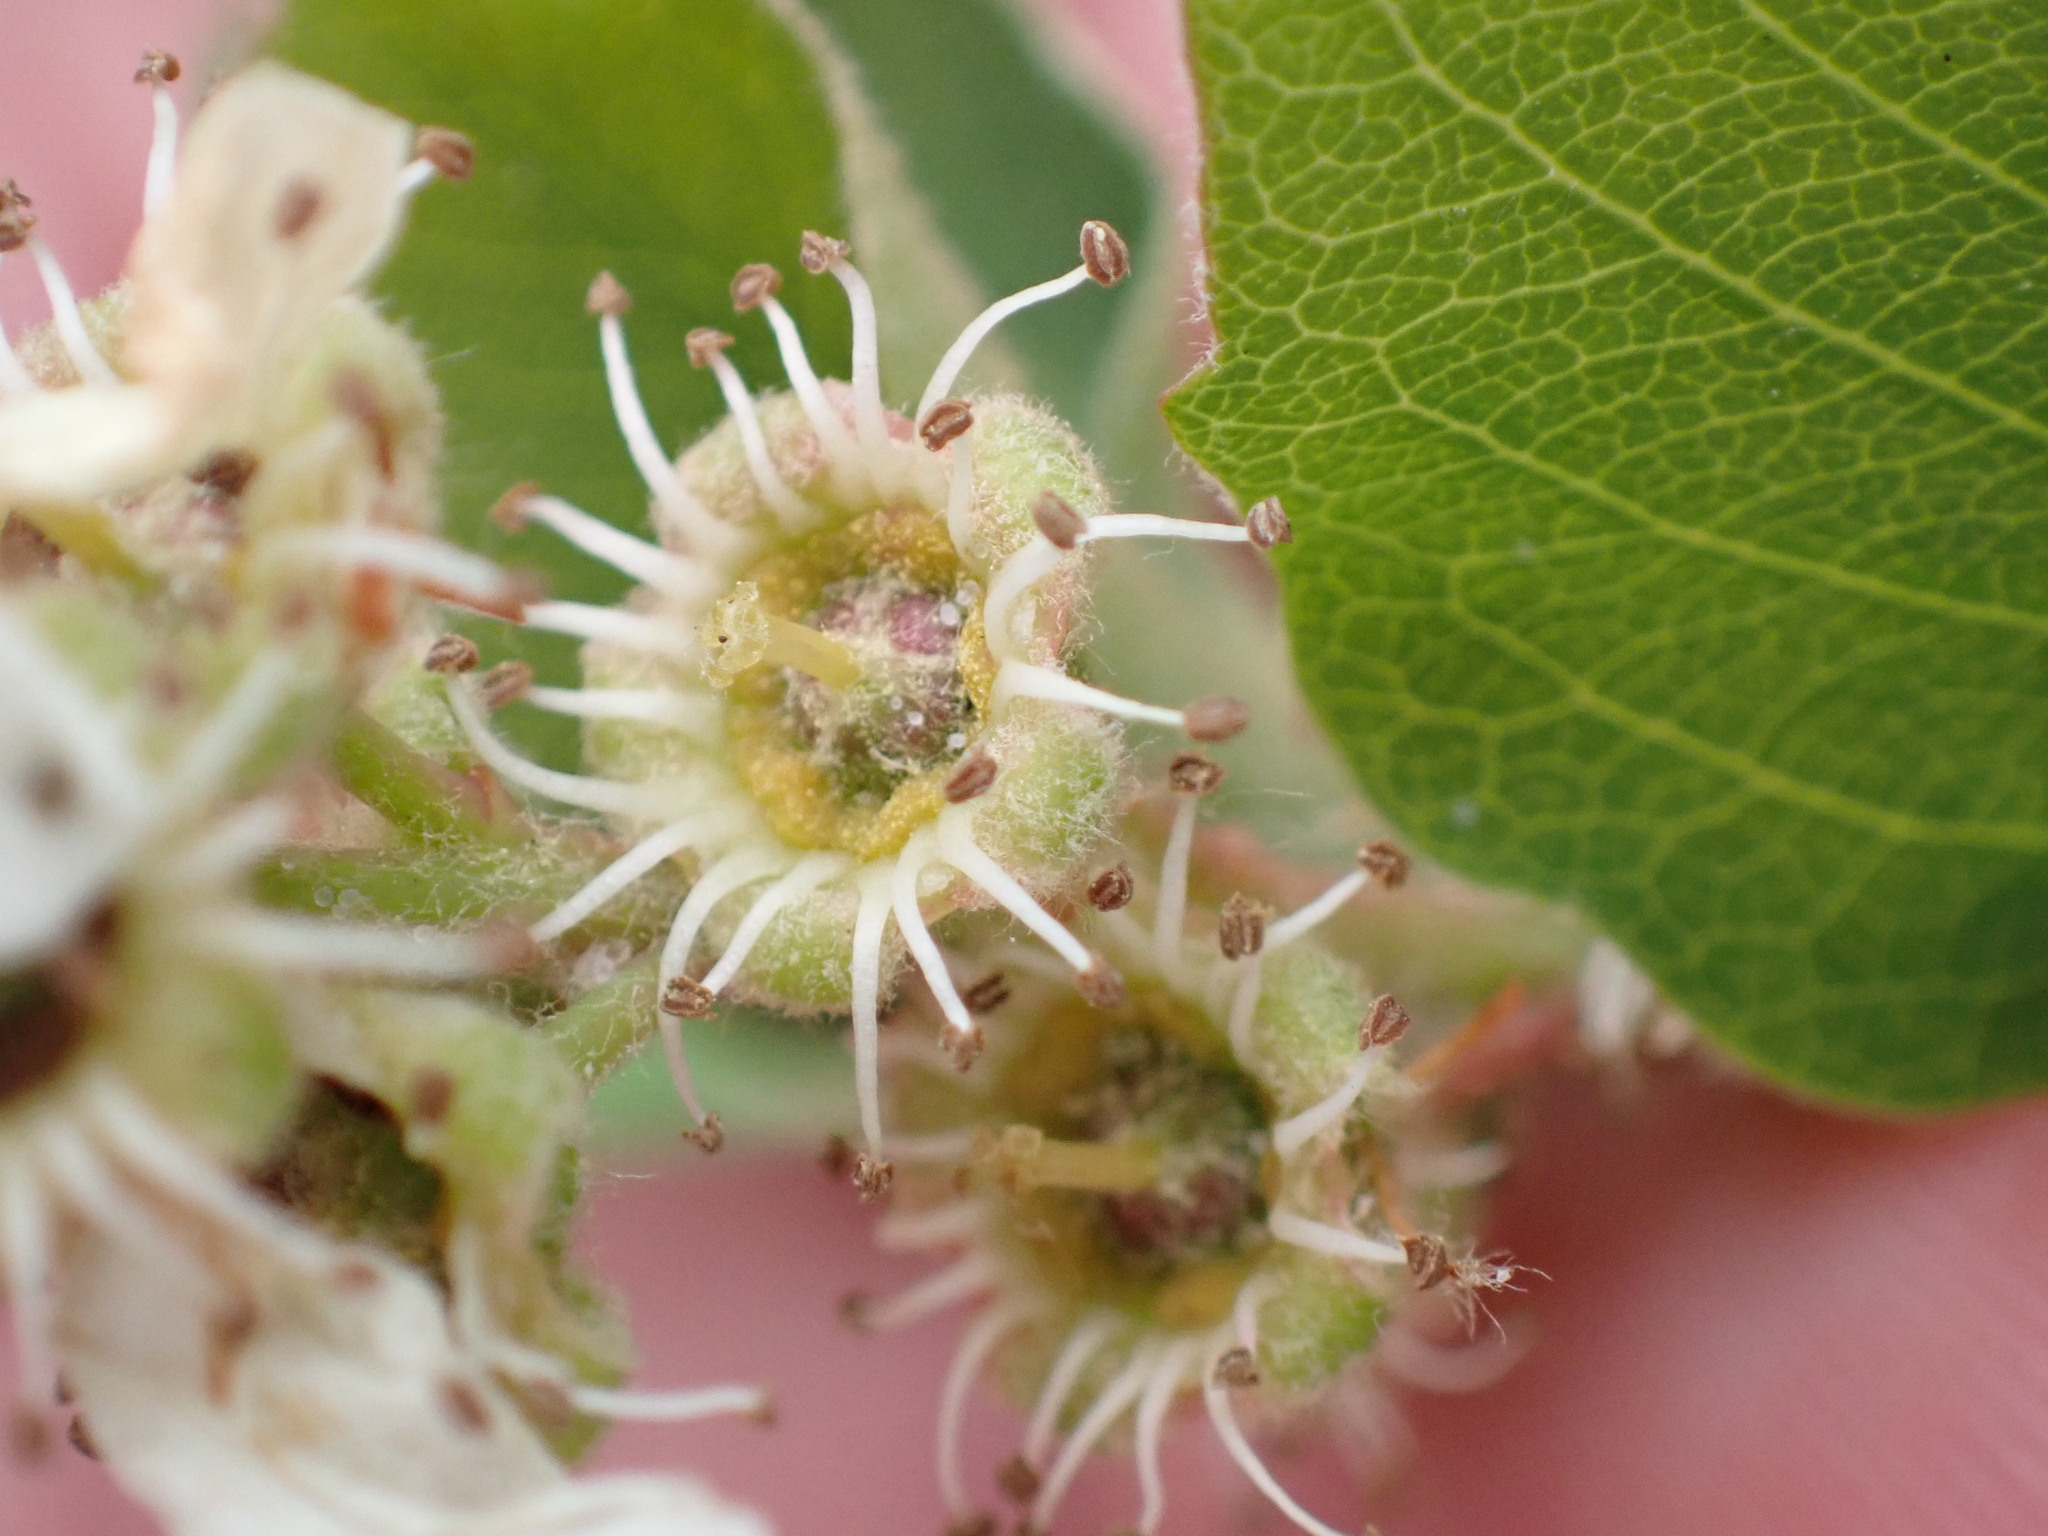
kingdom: Plantae
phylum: Tracheophyta
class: Magnoliopsida
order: Rosales
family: Rosaceae
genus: Amelanchier
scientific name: Amelanchier alnifolia
